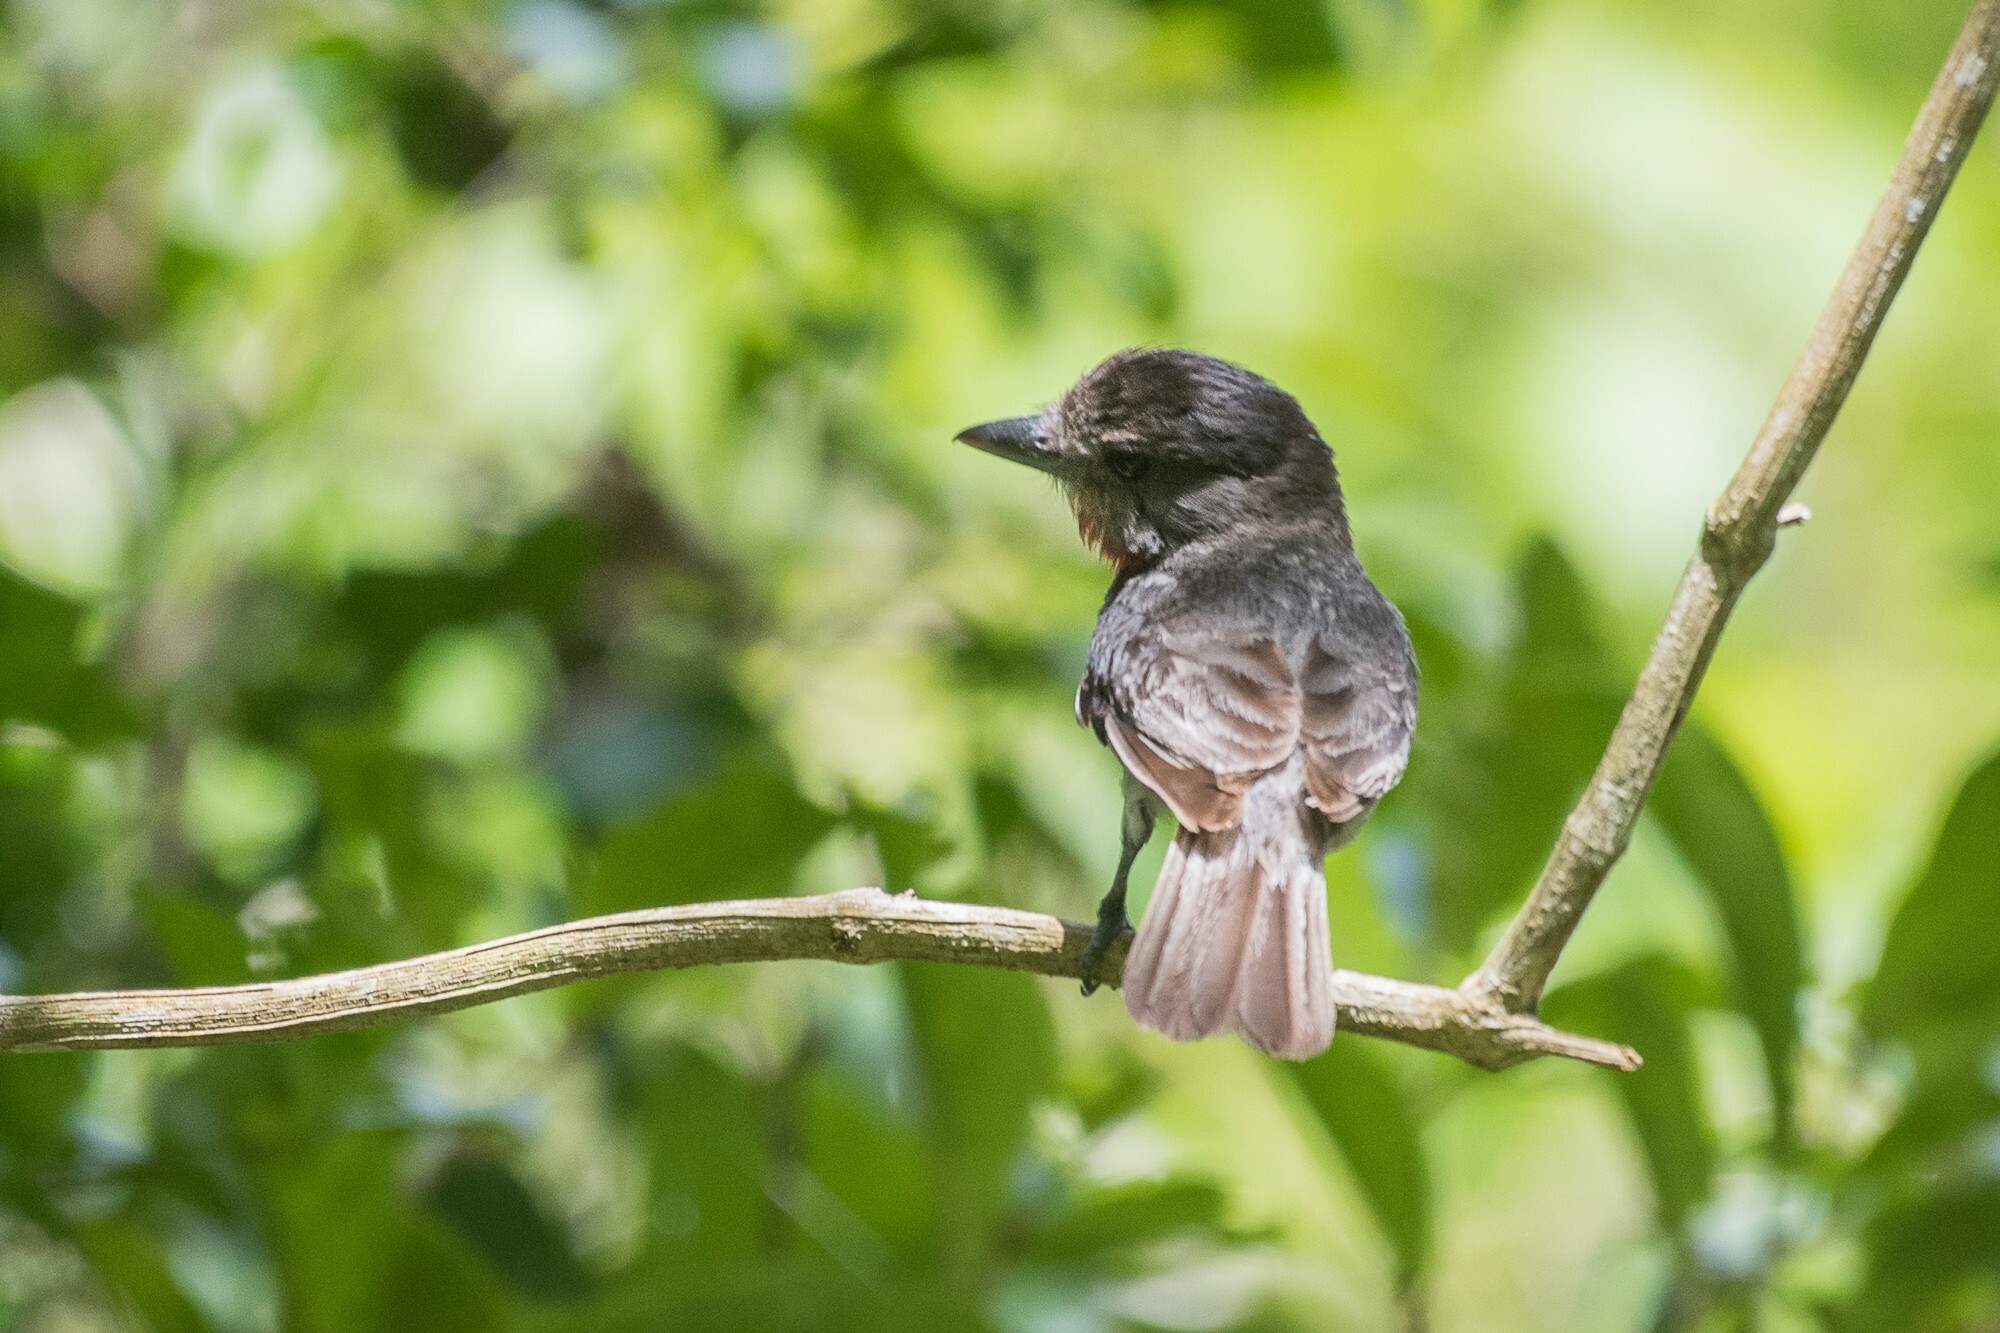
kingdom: Animalia
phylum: Chordata
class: Aves
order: Passeriformes
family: Cotingidae
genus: Pachyramphus
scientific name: Pachyramphus aglaiae
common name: Rose-throated becard
